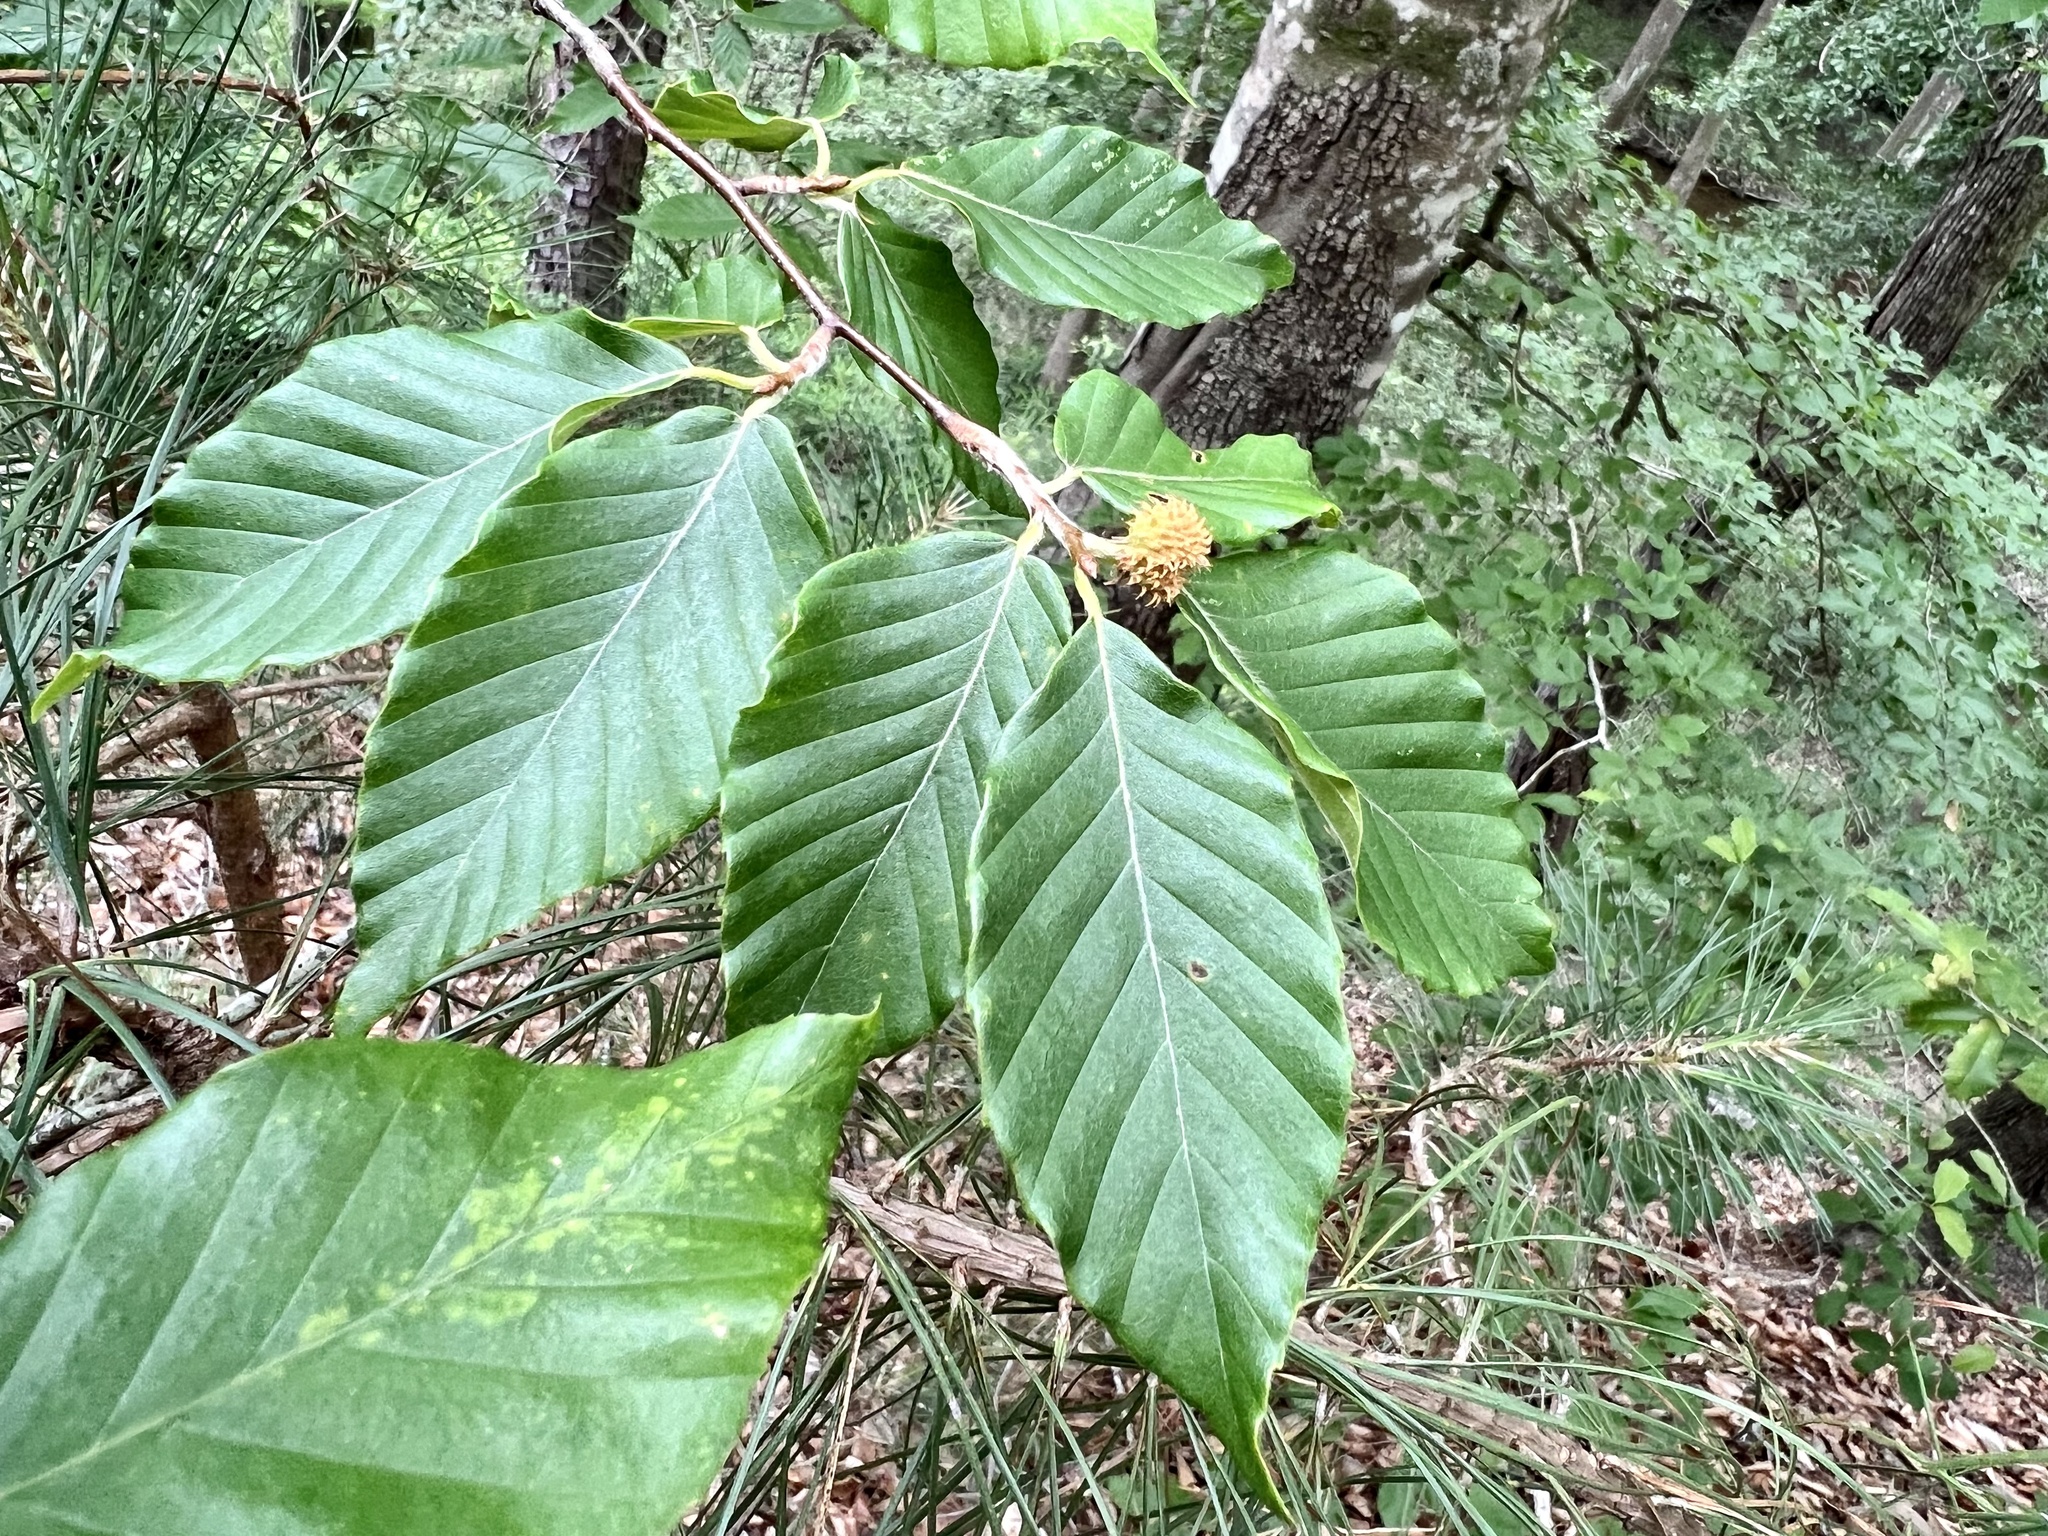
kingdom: Plantae
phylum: Tracheophyta
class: Magnoliopsida
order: Fagales
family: Fagaceae
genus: Fagus
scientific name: Fagus grandifolia
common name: American beech
